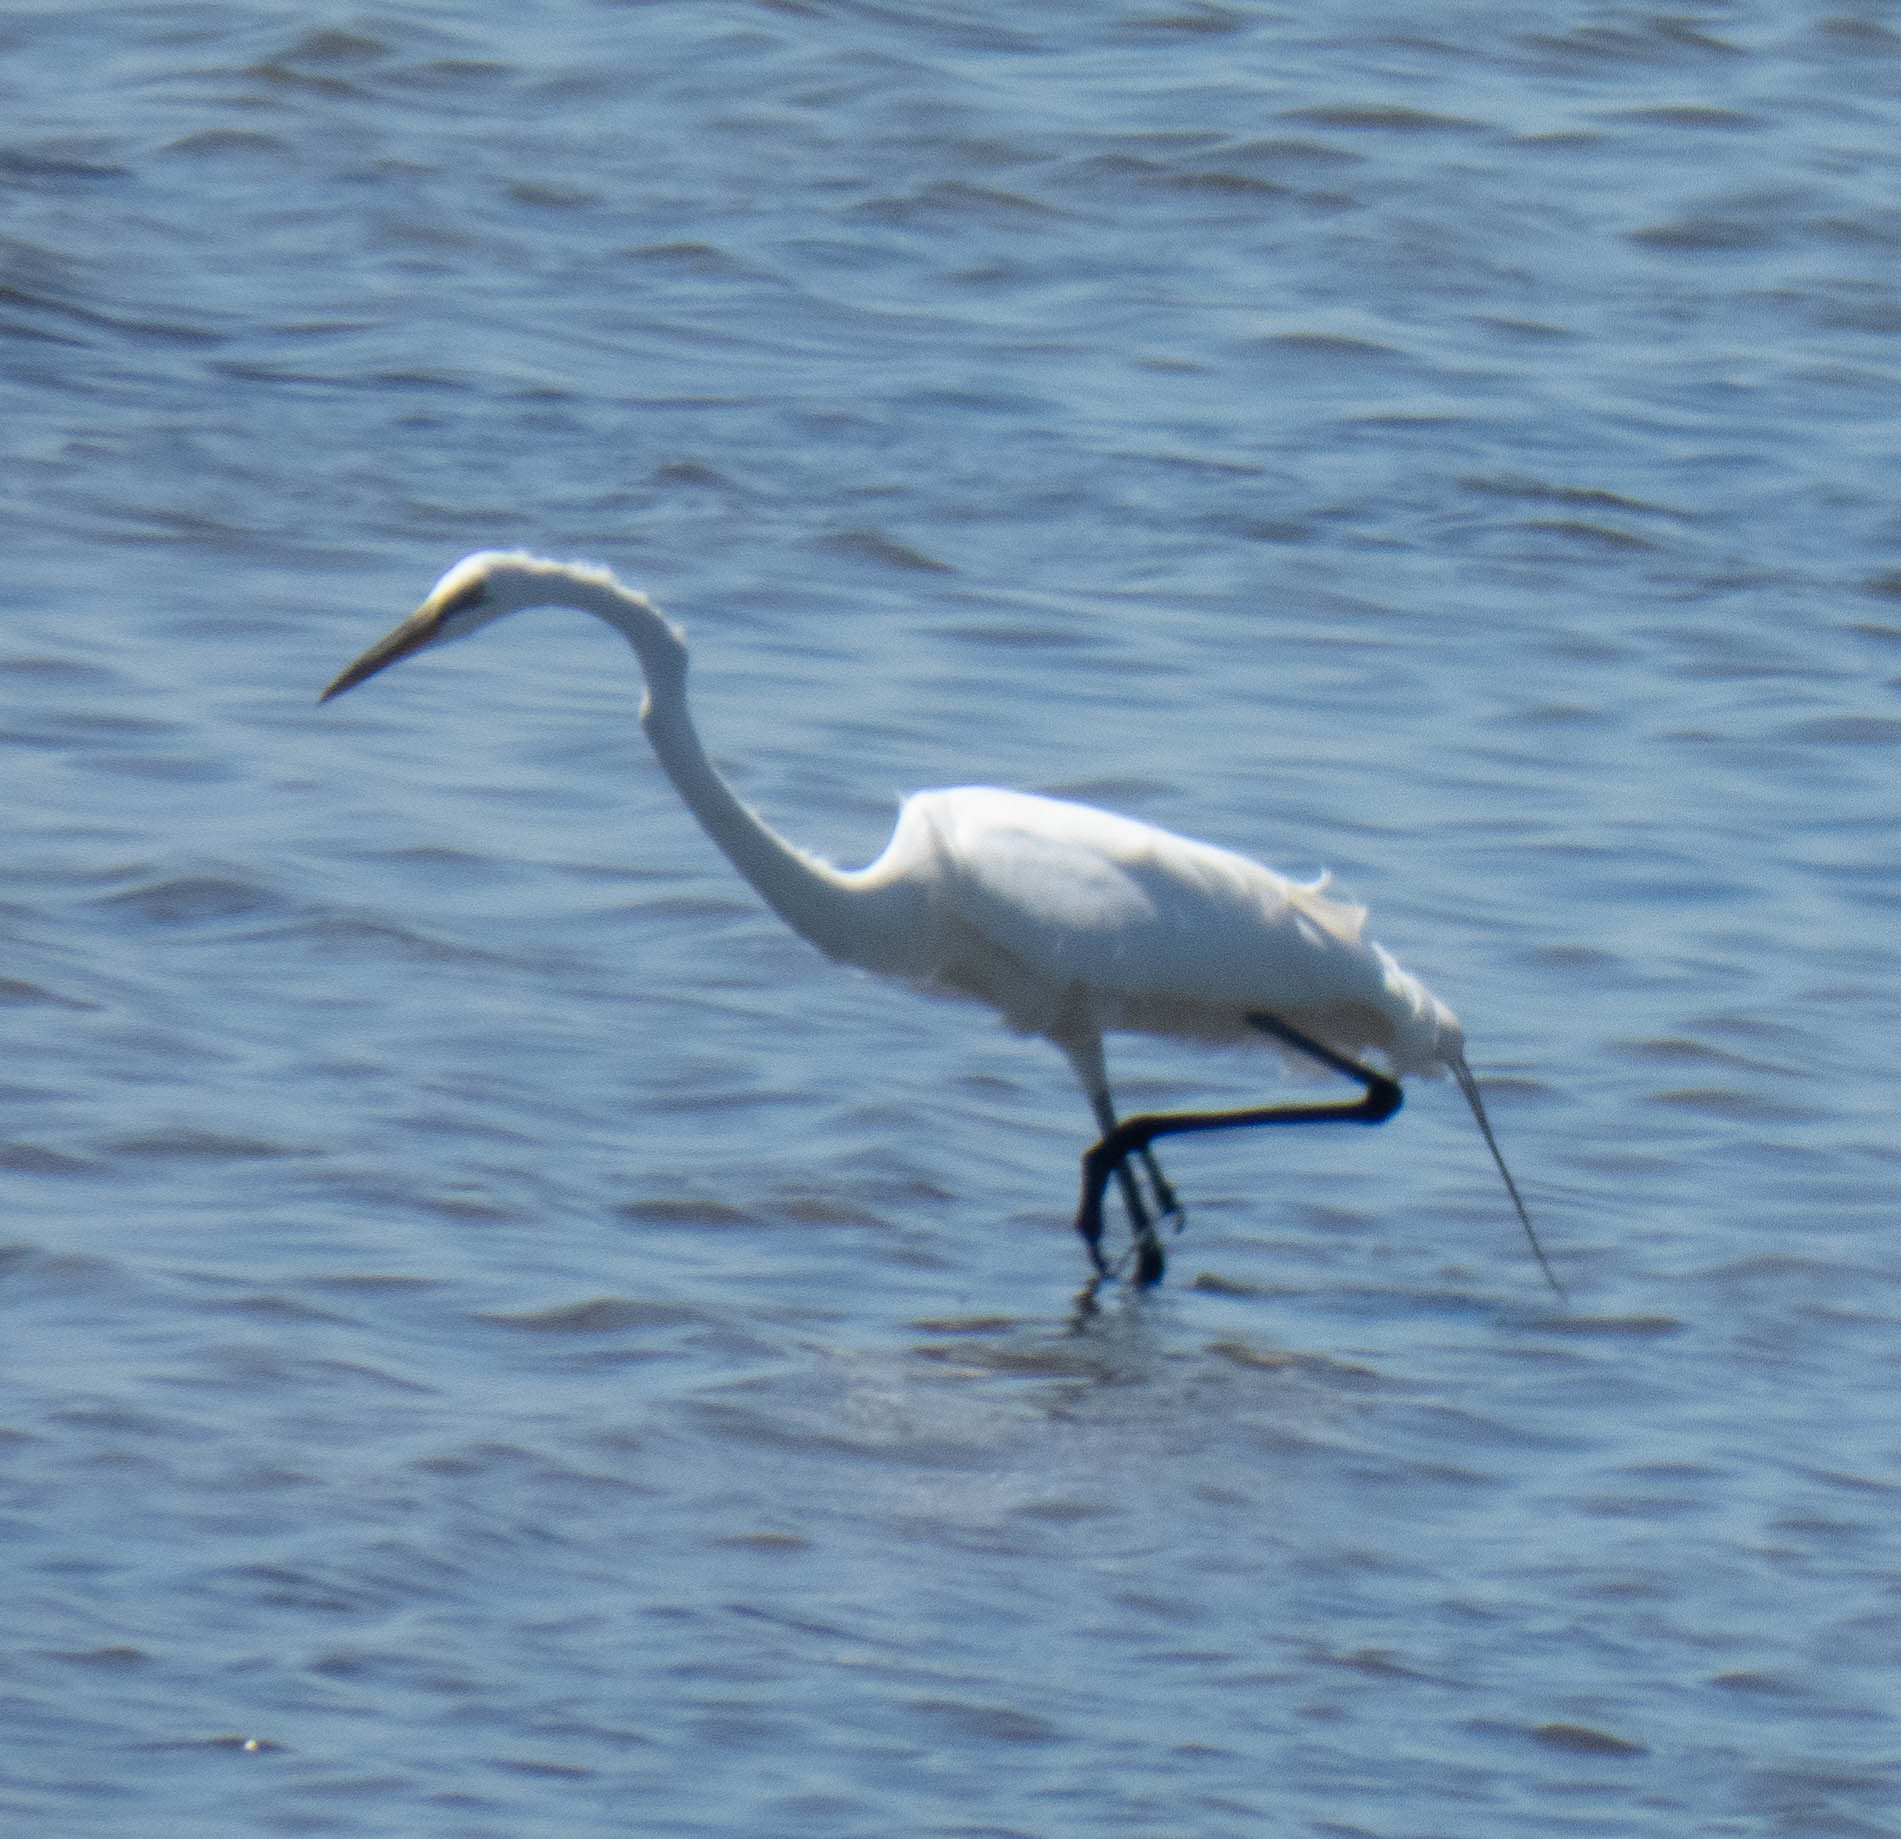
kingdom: Animalia
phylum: Chordata
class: Aves
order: Pelecaniformes
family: Ardeidae
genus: Ardea
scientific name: Ardea alba
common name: Great egret
